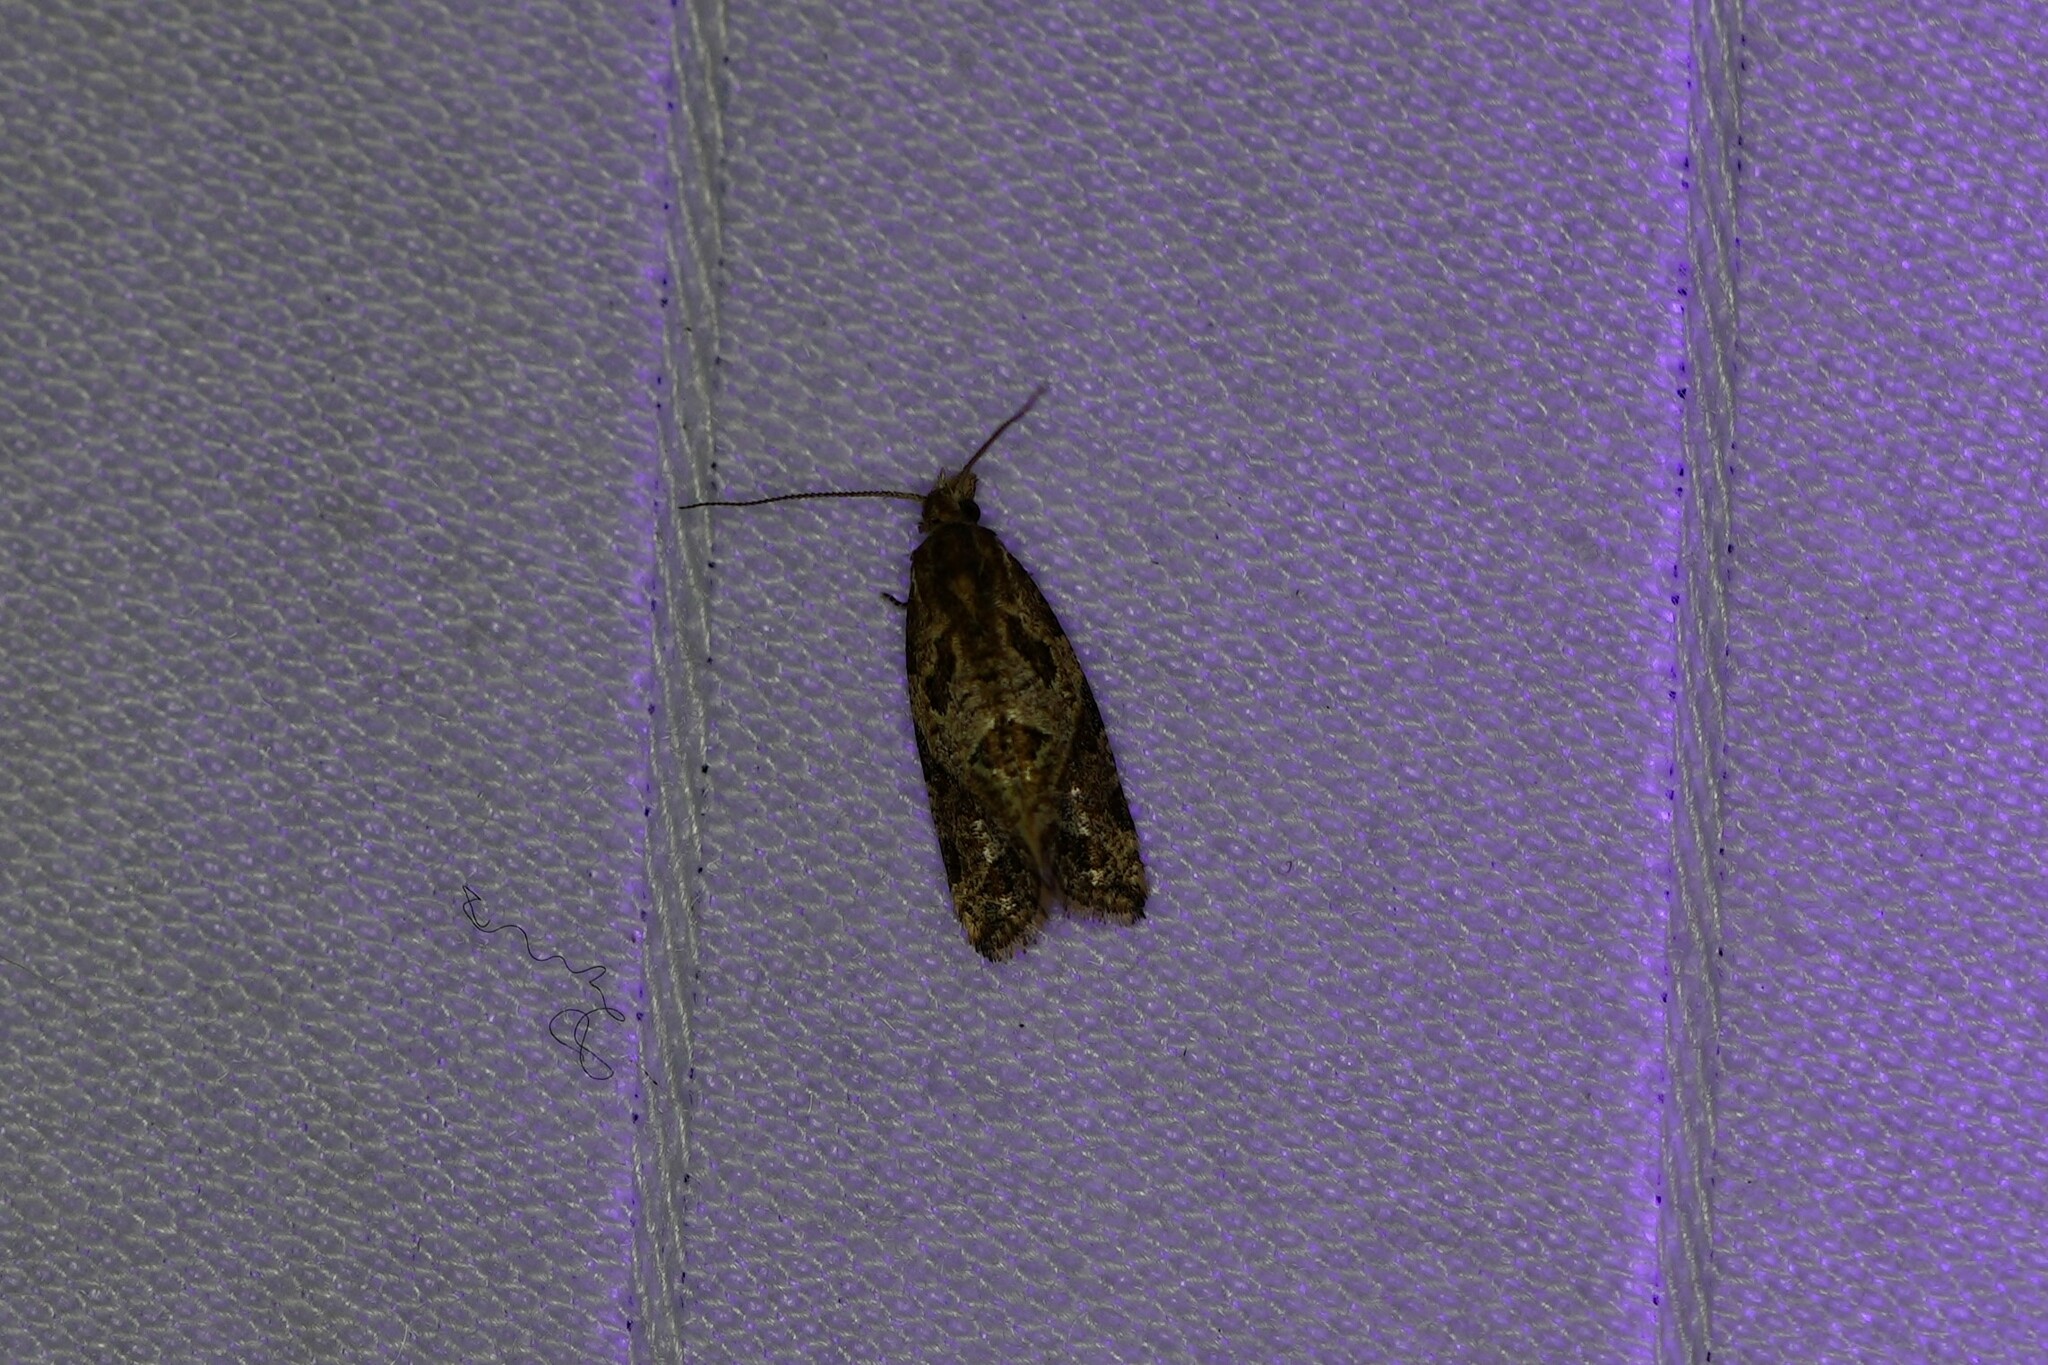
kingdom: Animalia
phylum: Arthropoda
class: Insecta
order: Lepidoptera
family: Tortricidae
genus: Aethes
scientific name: Aethes sexdentata
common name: Six-toothed aethes
